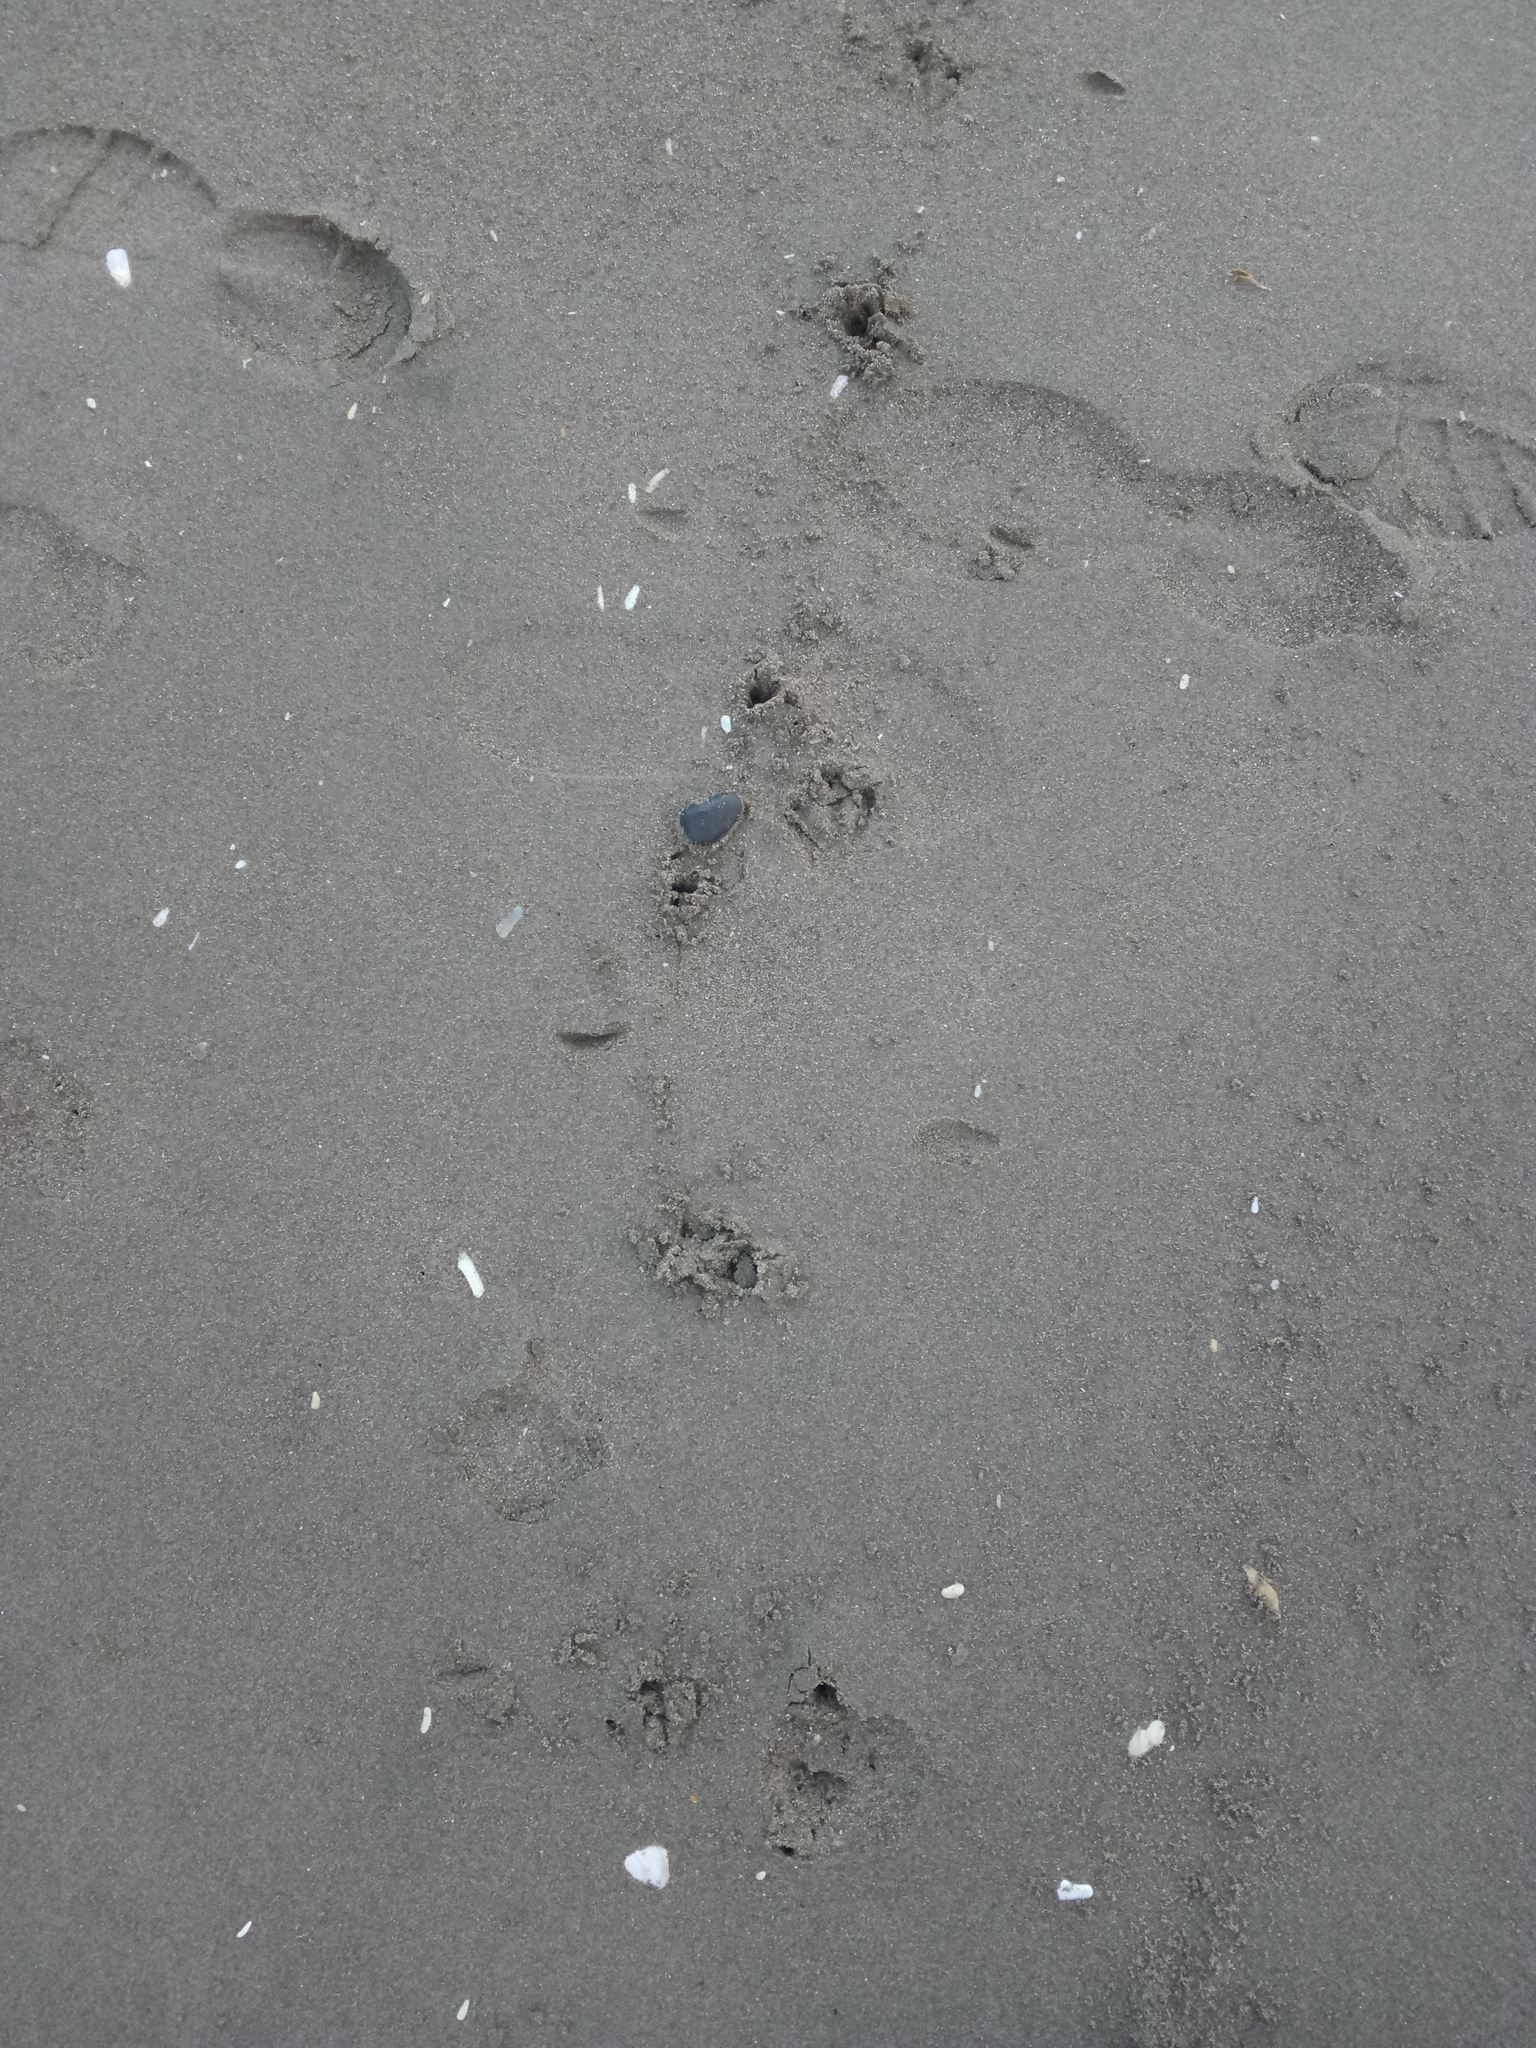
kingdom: Animalia
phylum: Chordata
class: Aves
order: Sphenisciformes
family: Spheniscidae
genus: Eudyptula
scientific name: Eudyptula minor
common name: Little penguin
